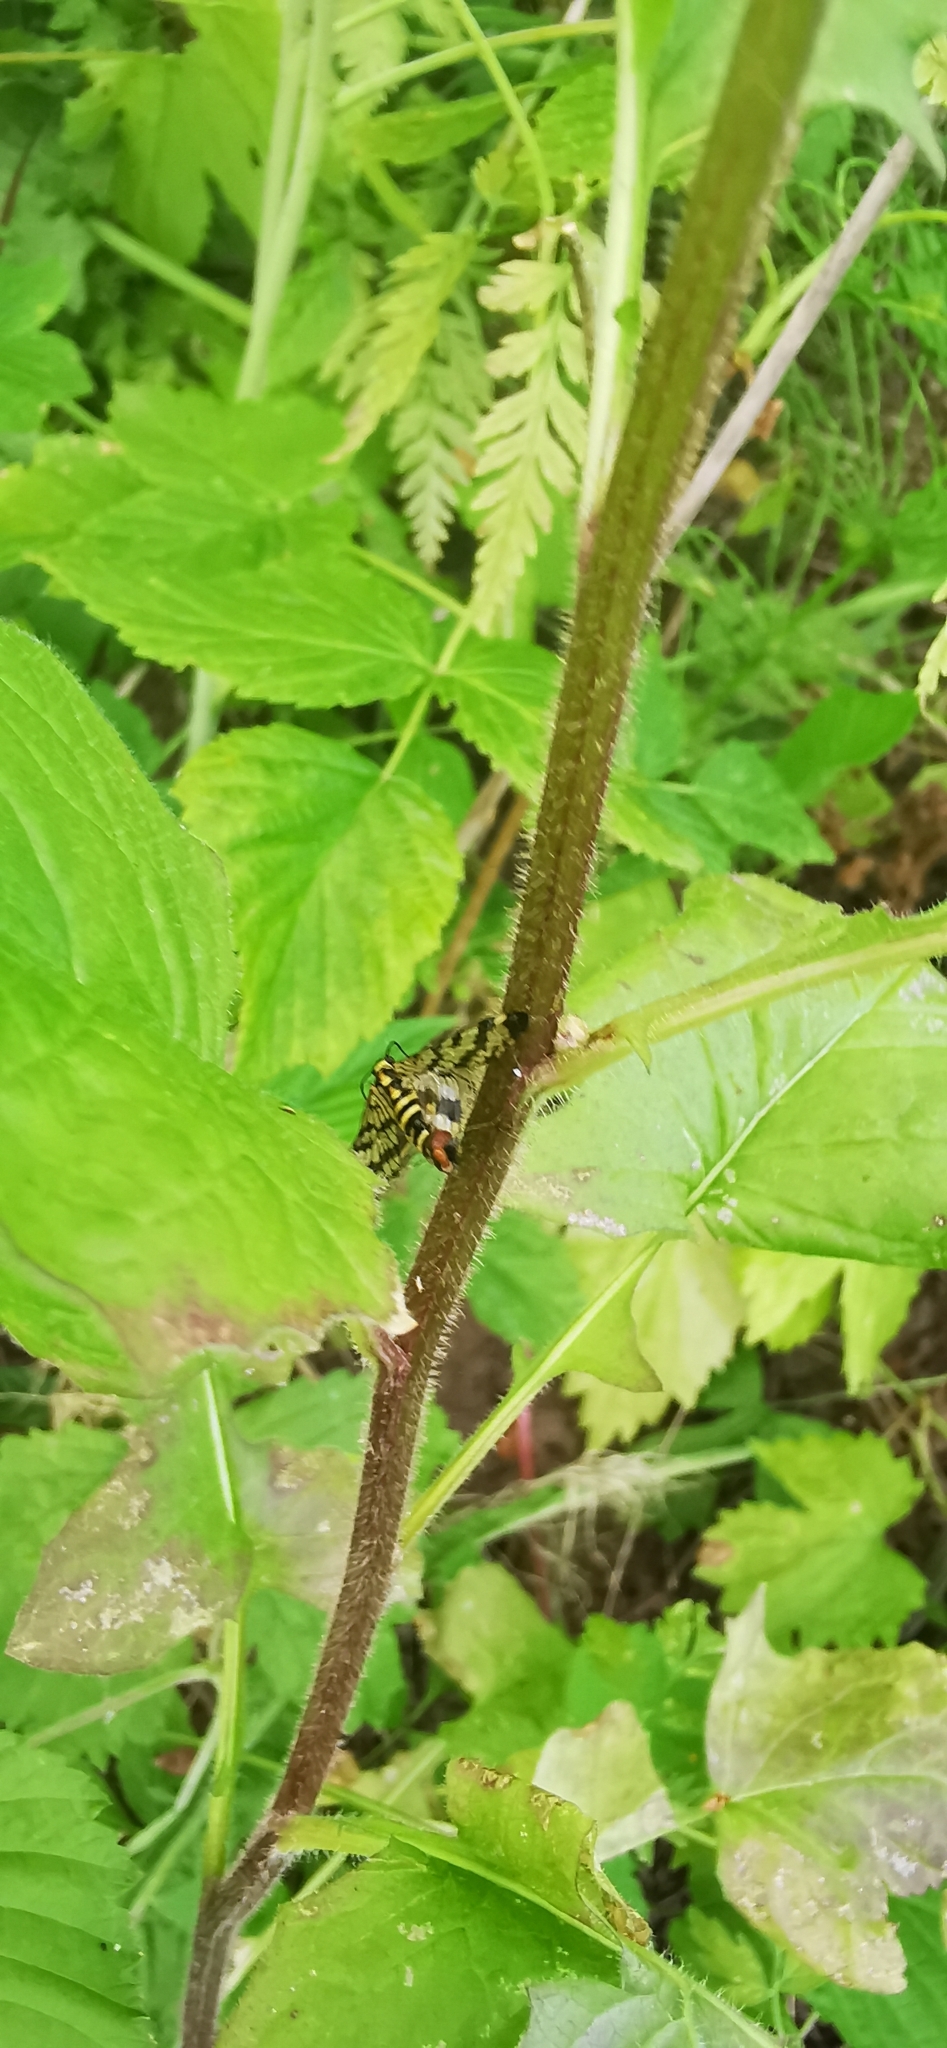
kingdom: Plantae
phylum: Tracheophyta
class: Magnoliopsida
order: Lamiales
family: Scrophulariaceae
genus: Scrophularia
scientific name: Scrophularia nodosa
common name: Common figwort
